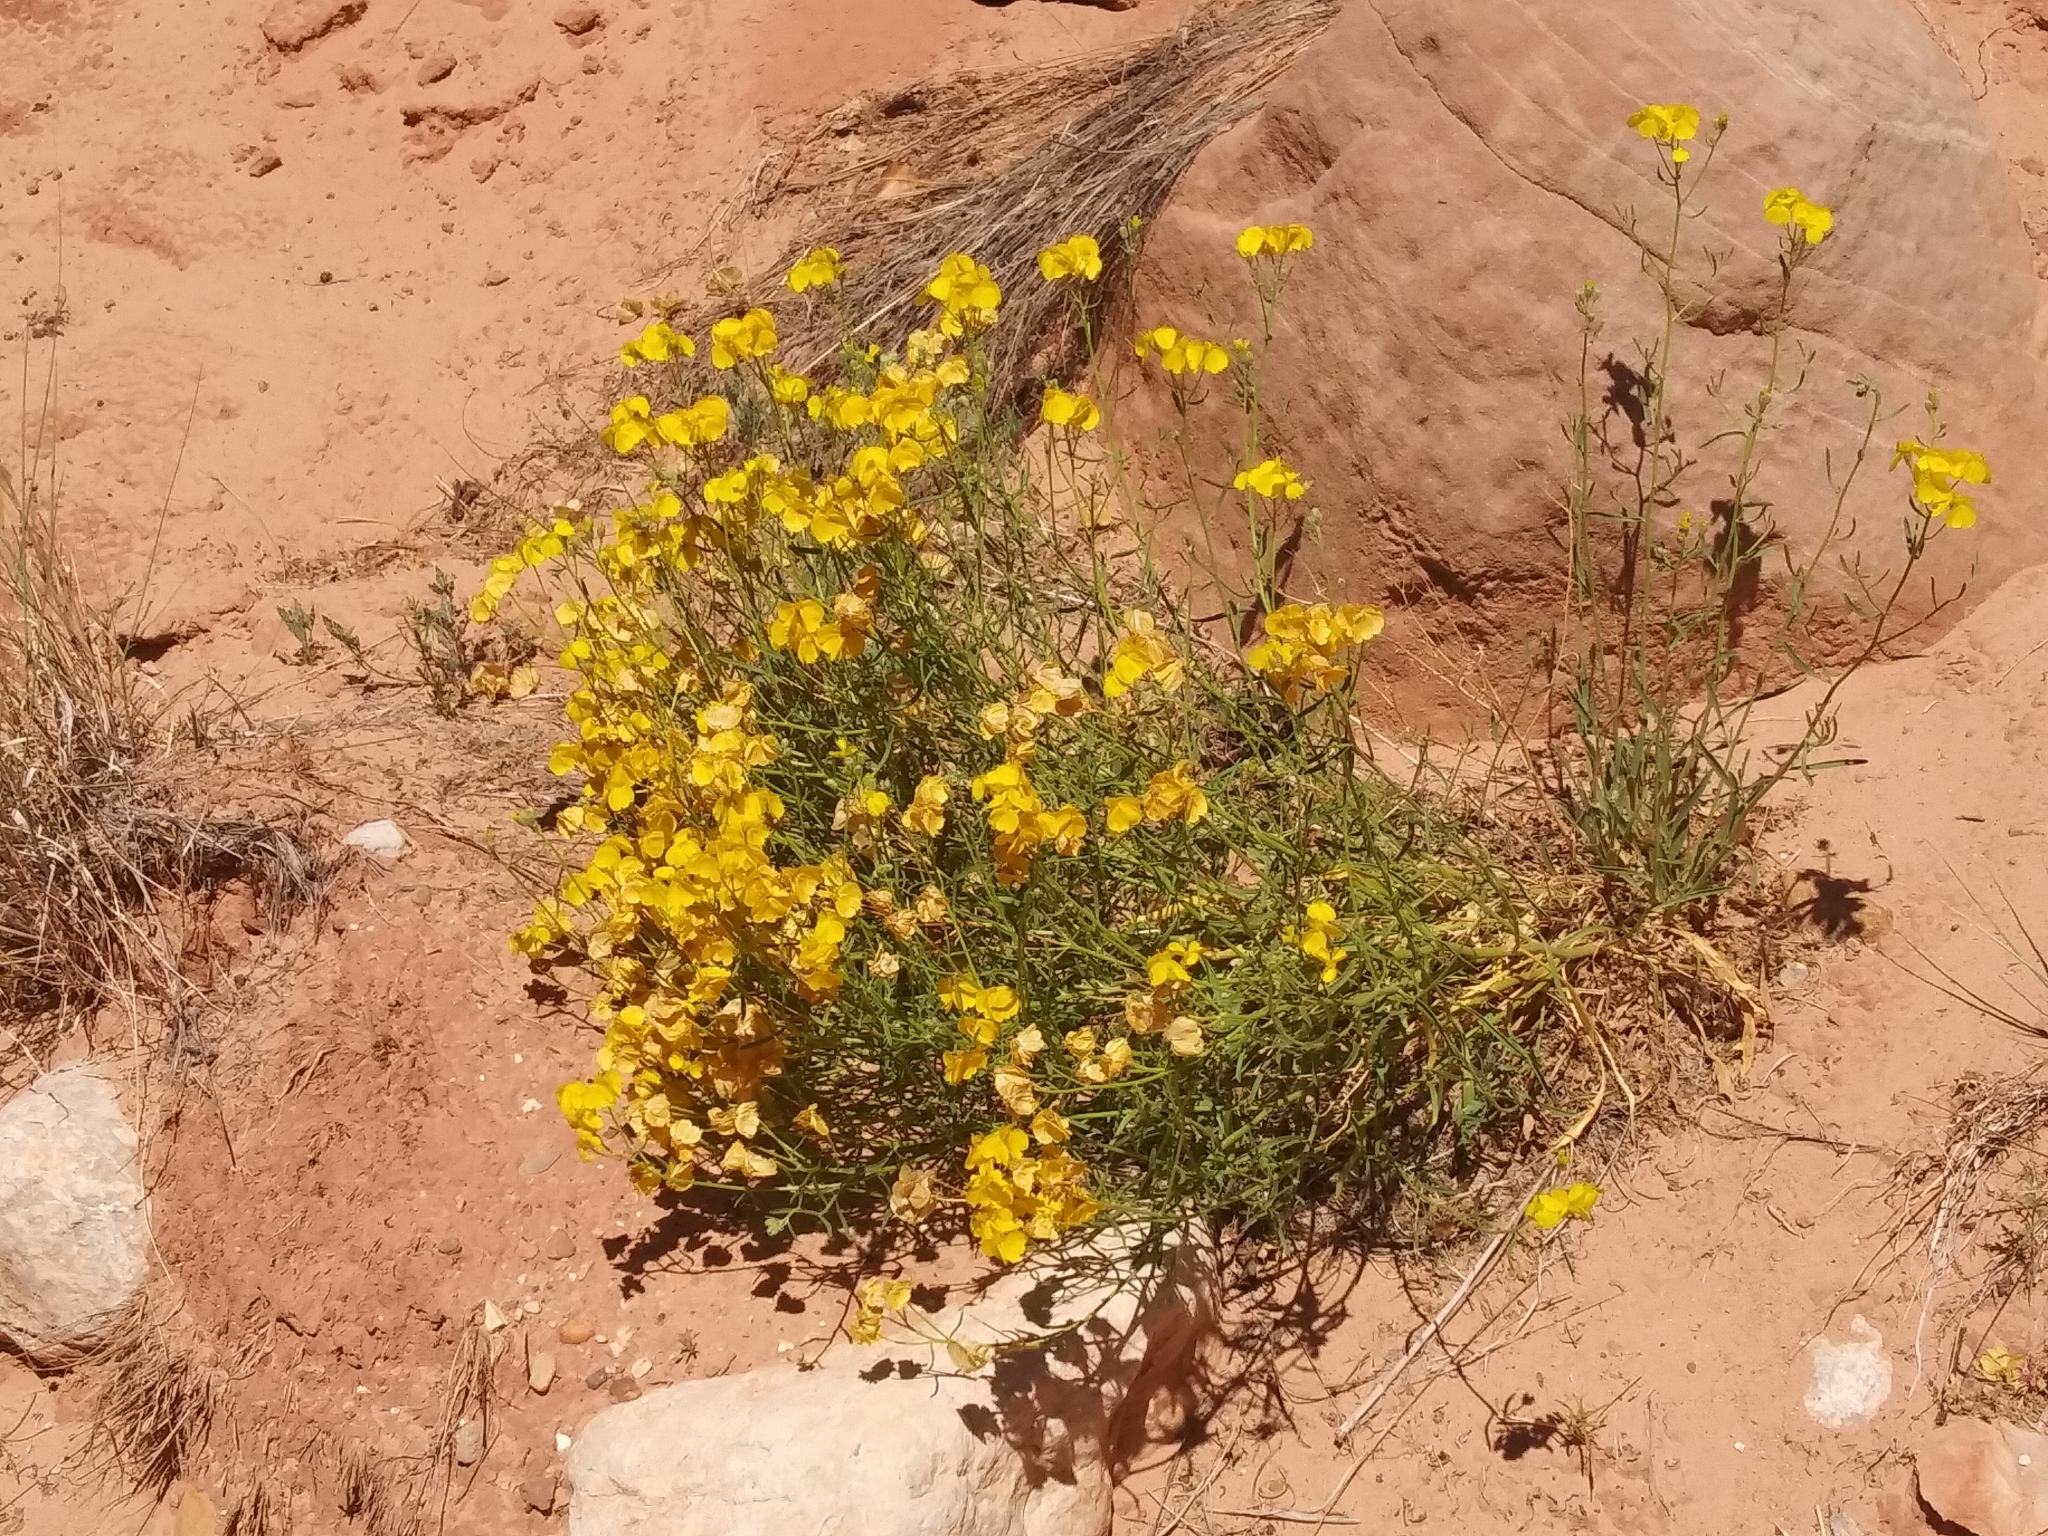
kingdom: Plantae
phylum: Tracheophyta
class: Magnoliopsida
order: Asterales
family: Asteraceae
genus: Psilostrophe
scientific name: Psilostrophe sparsiflora
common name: Green-stem paper-flower
